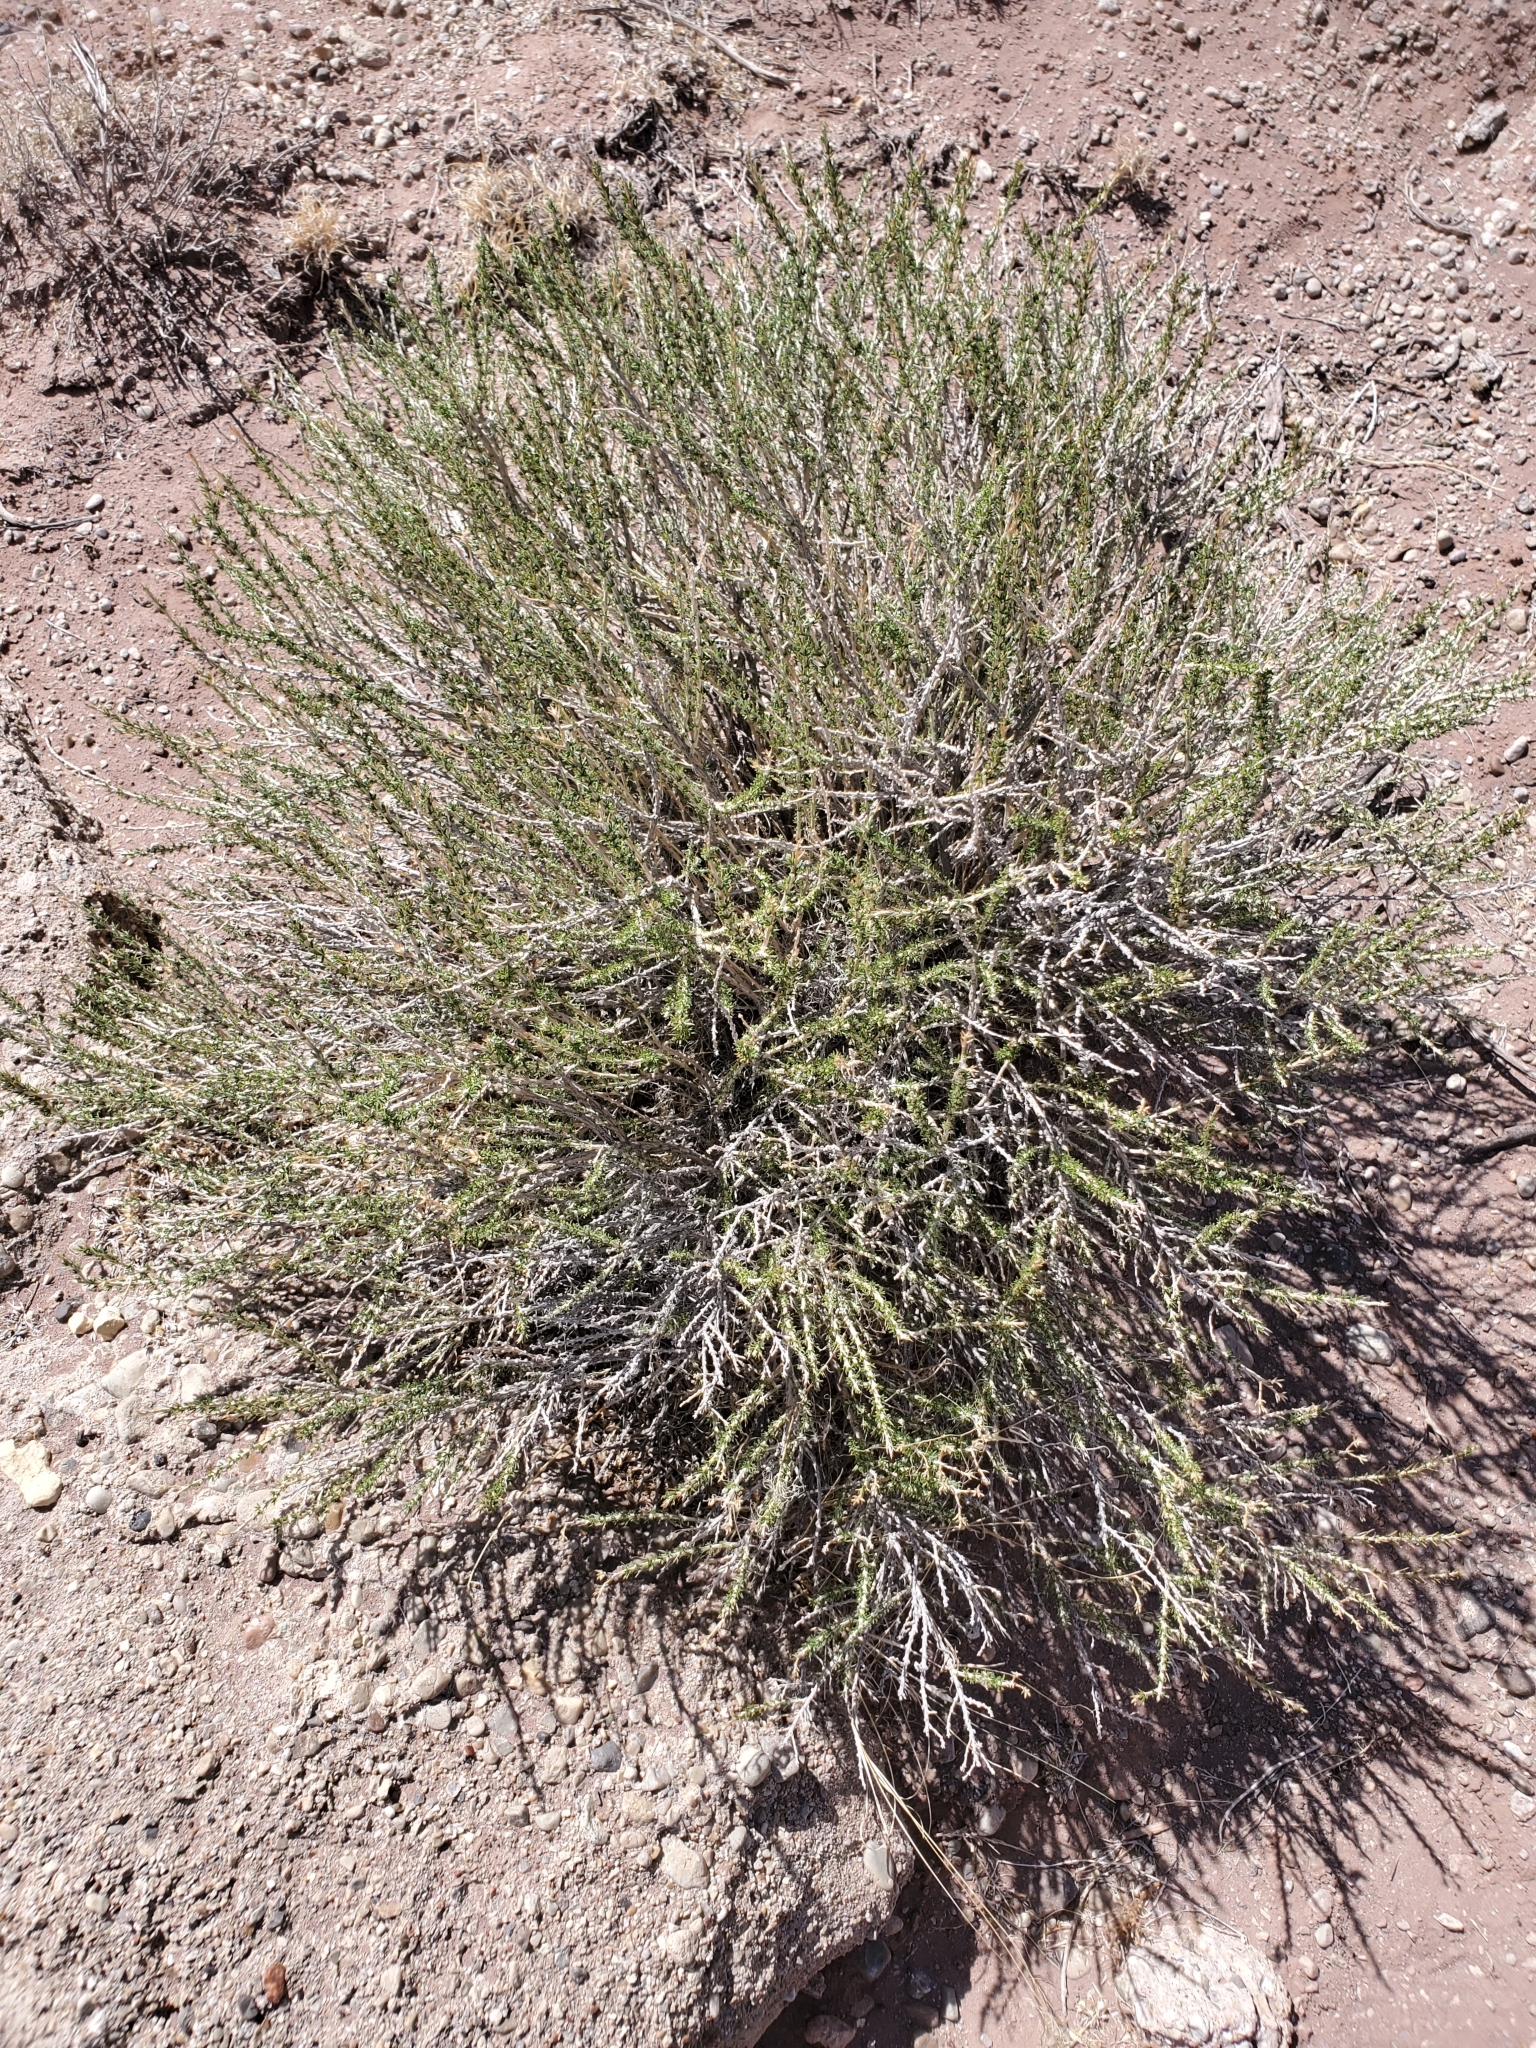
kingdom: Plantae
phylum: Tracheophyta
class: Magnoliopsida
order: Asterales
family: Asteraceae
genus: Tetradymia
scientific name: Tetradymia glabrata
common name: Smooth tetradymia
